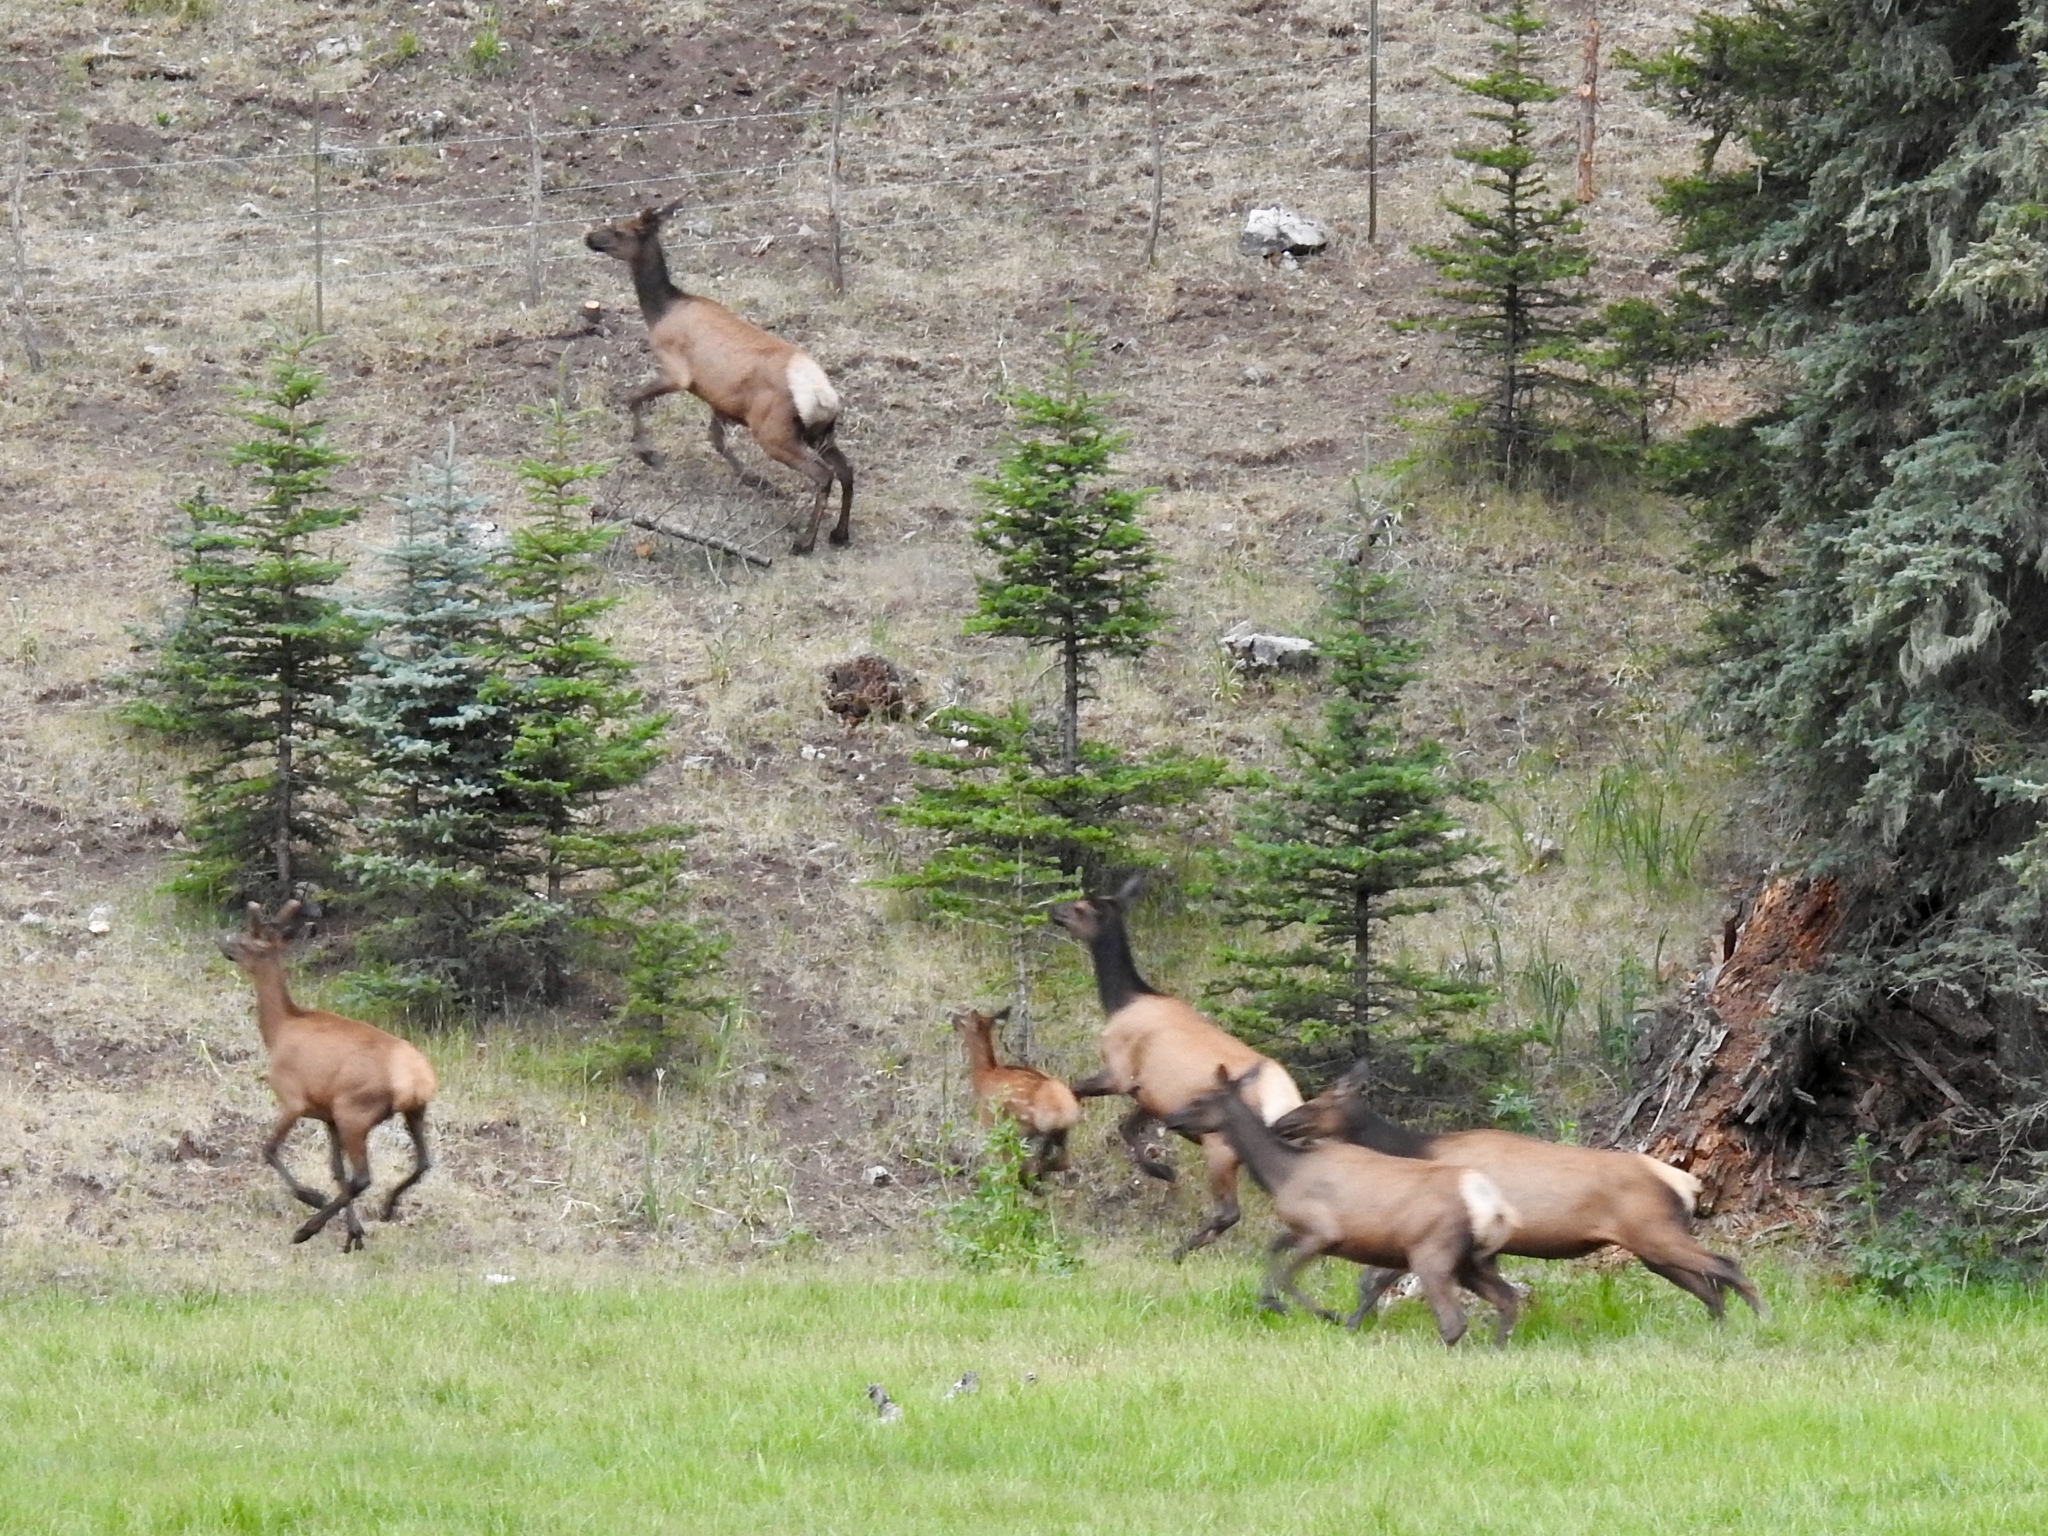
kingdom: Animalia
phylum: Chordata
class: Mammalia
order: Artiodactyla
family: Cervidae
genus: Cervus
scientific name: Cervus elaphus
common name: Red deer
